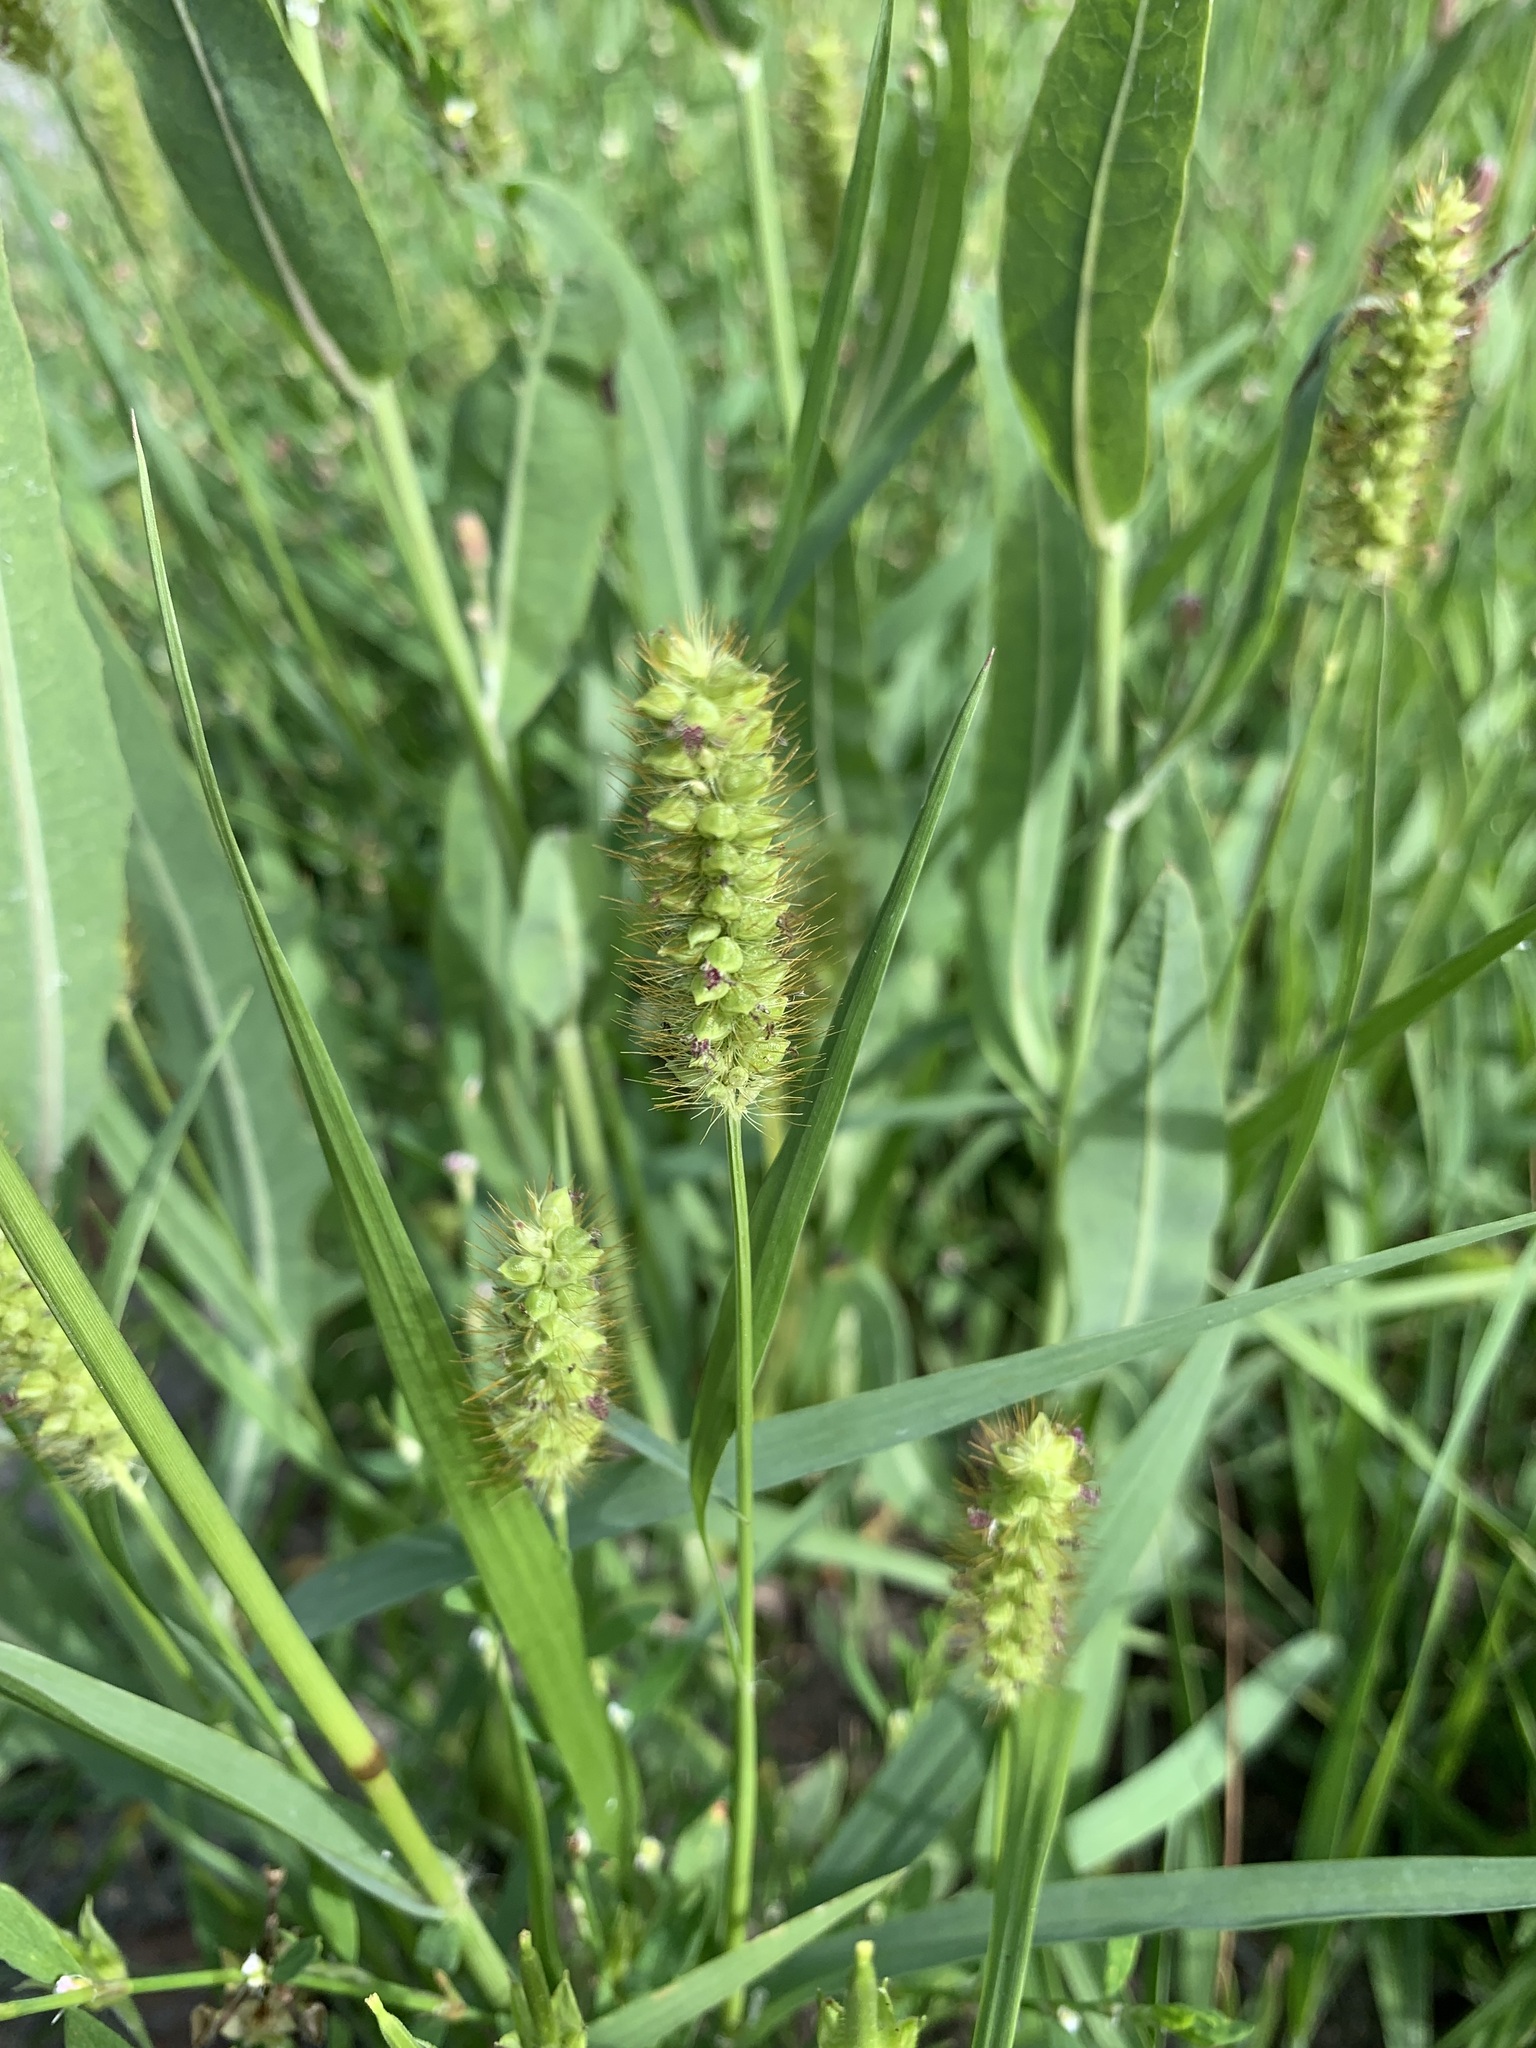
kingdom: Plantae
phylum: Tracheophyta
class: Liliopsida
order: Poales
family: Poaceae
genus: Setaria
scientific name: Setaria pumila
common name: Yellow bristle-grass
